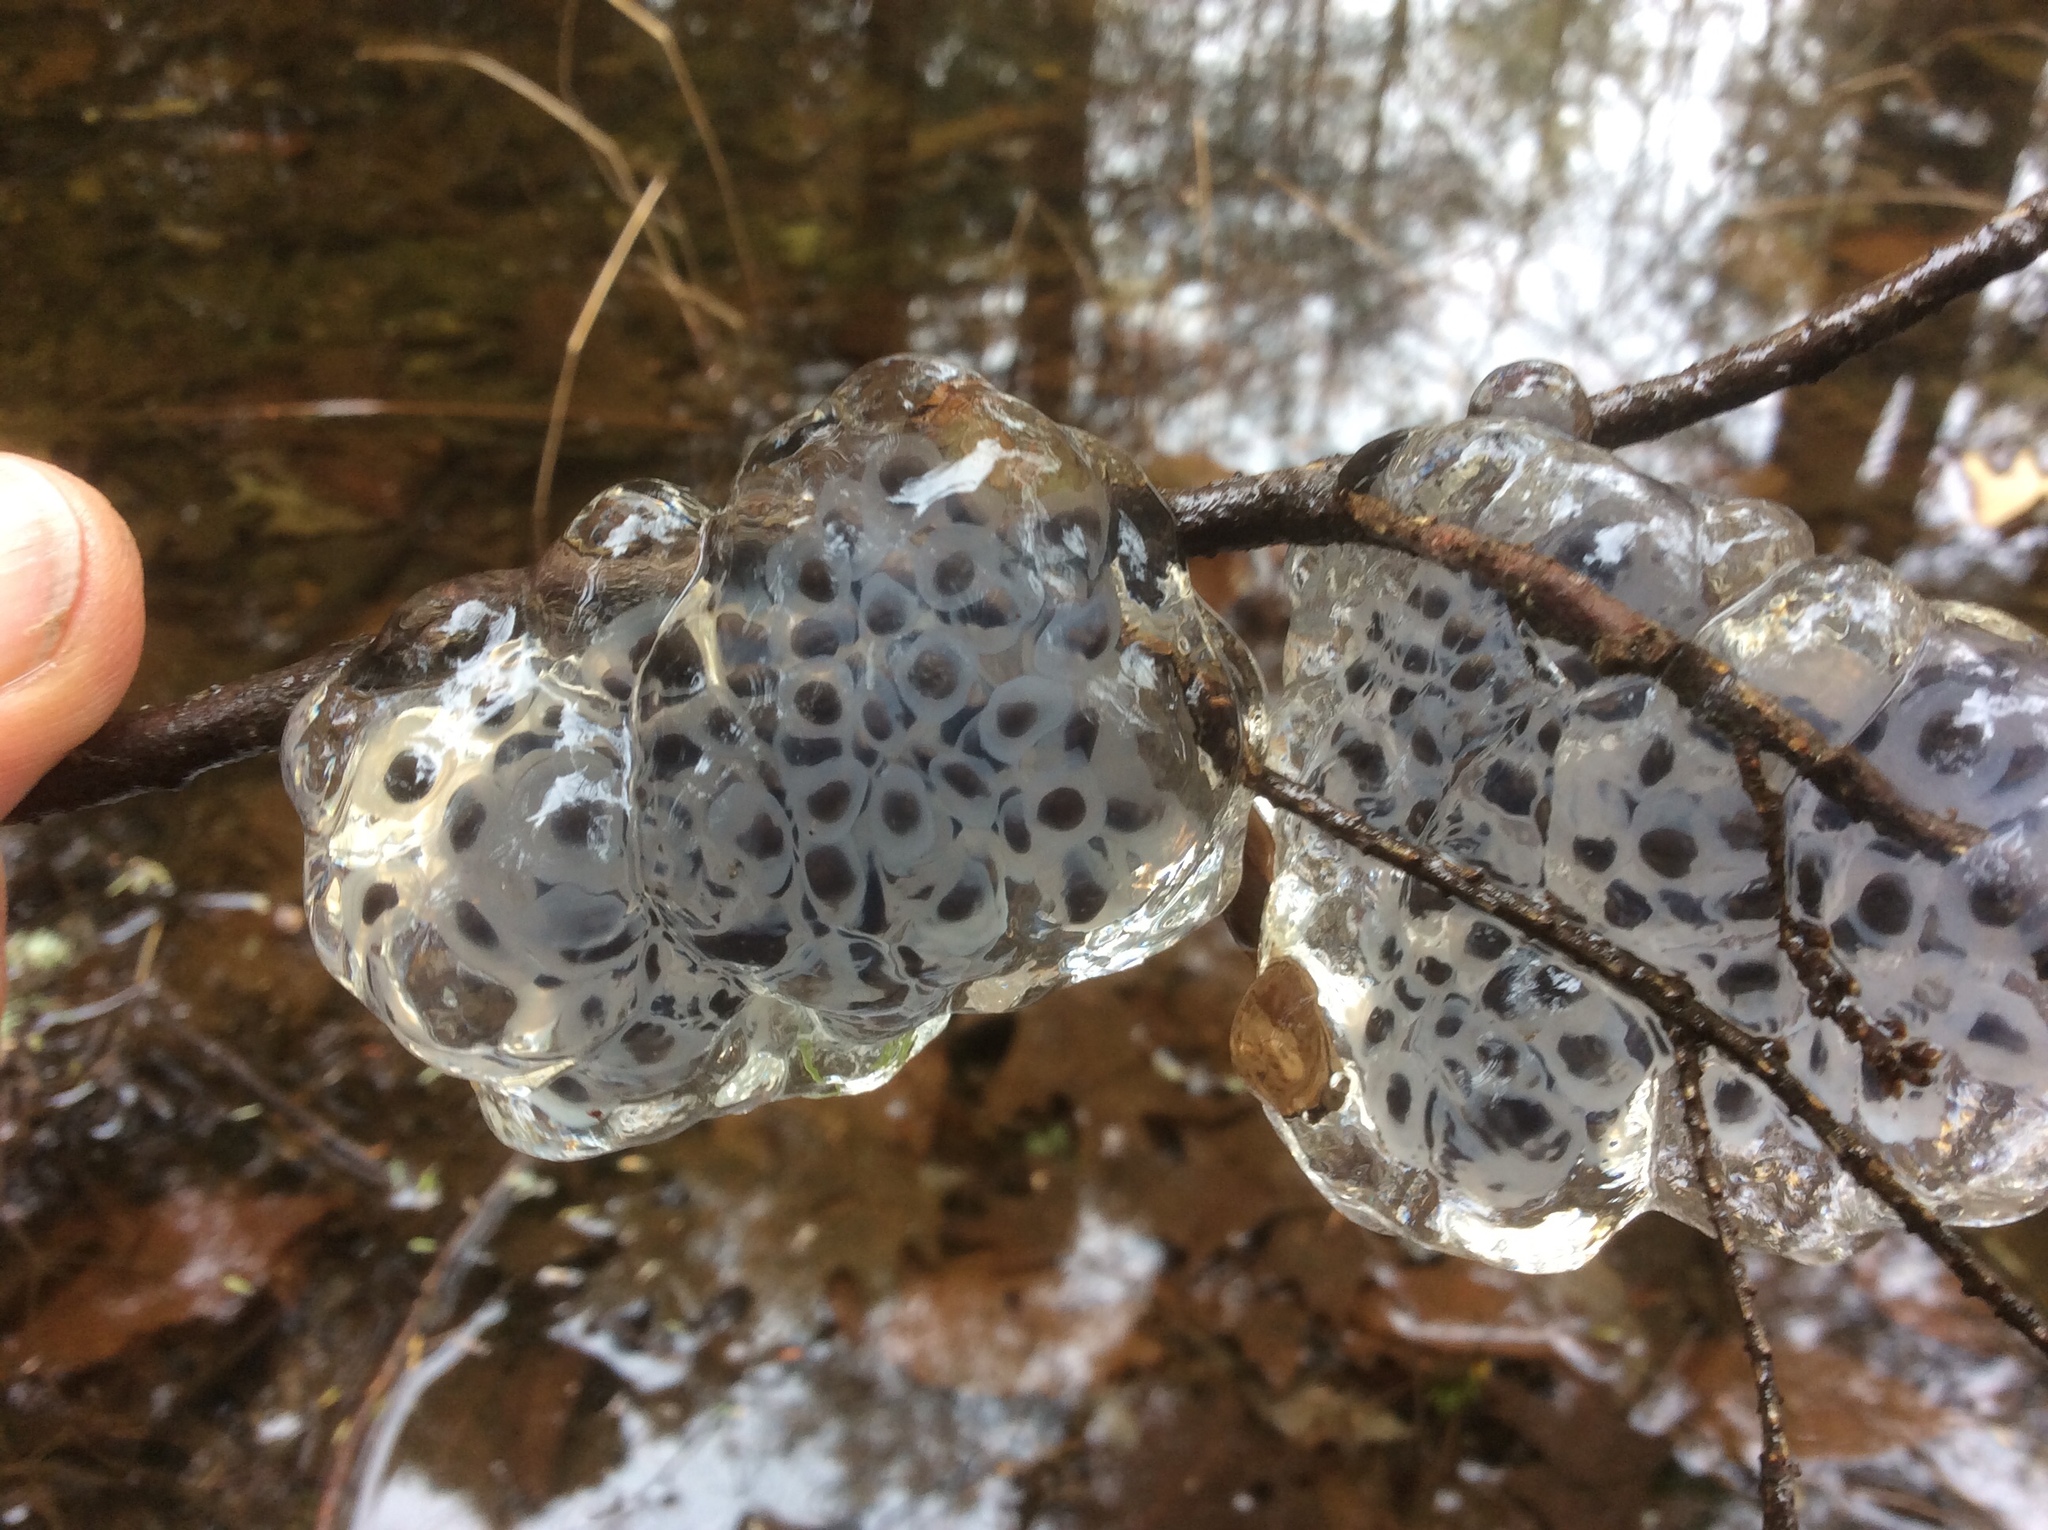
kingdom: Animalia
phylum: Chordata
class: Amphibia
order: Caudata
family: Ambystomatidae
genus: Ambystoma
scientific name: Ambystoma maculatum
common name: Spotted salamander
